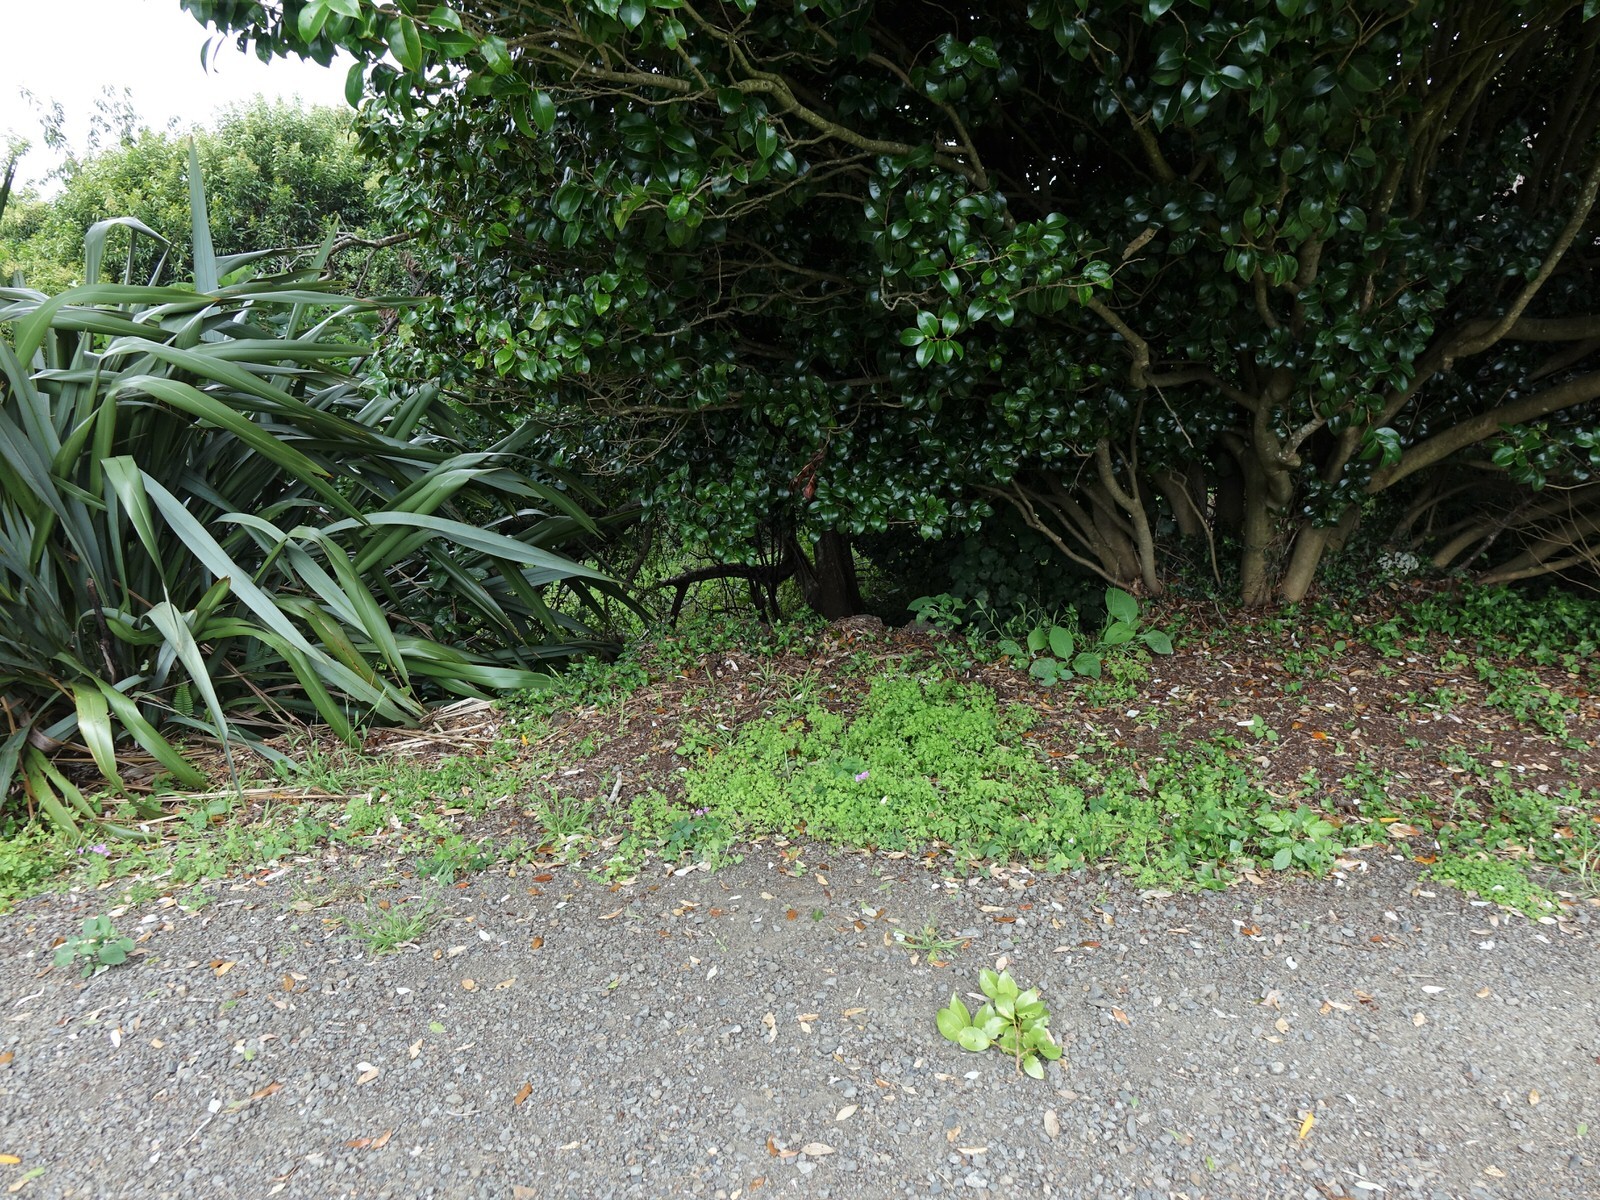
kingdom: Plantae
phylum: Tracheophyta
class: Magnoliopsida
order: Oxalidales
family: Oxalidaceae
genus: Oxalis
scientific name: Oxalis latifolia
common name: Garden pink-sorrel
